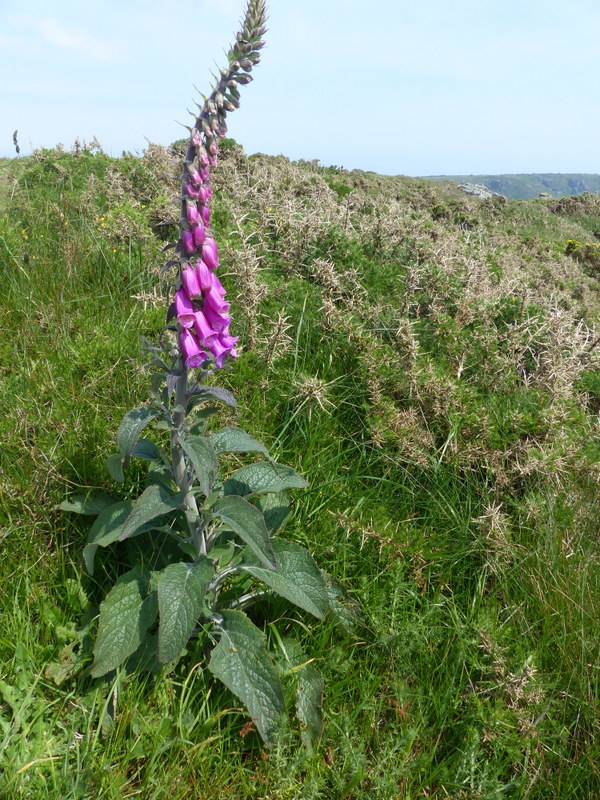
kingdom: Plantae
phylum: Tracheophyta
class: Magnoliopsida
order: Lamiales
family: Plantaginaceae
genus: Digitalis
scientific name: Digitalis purpurea
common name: Foxglove
